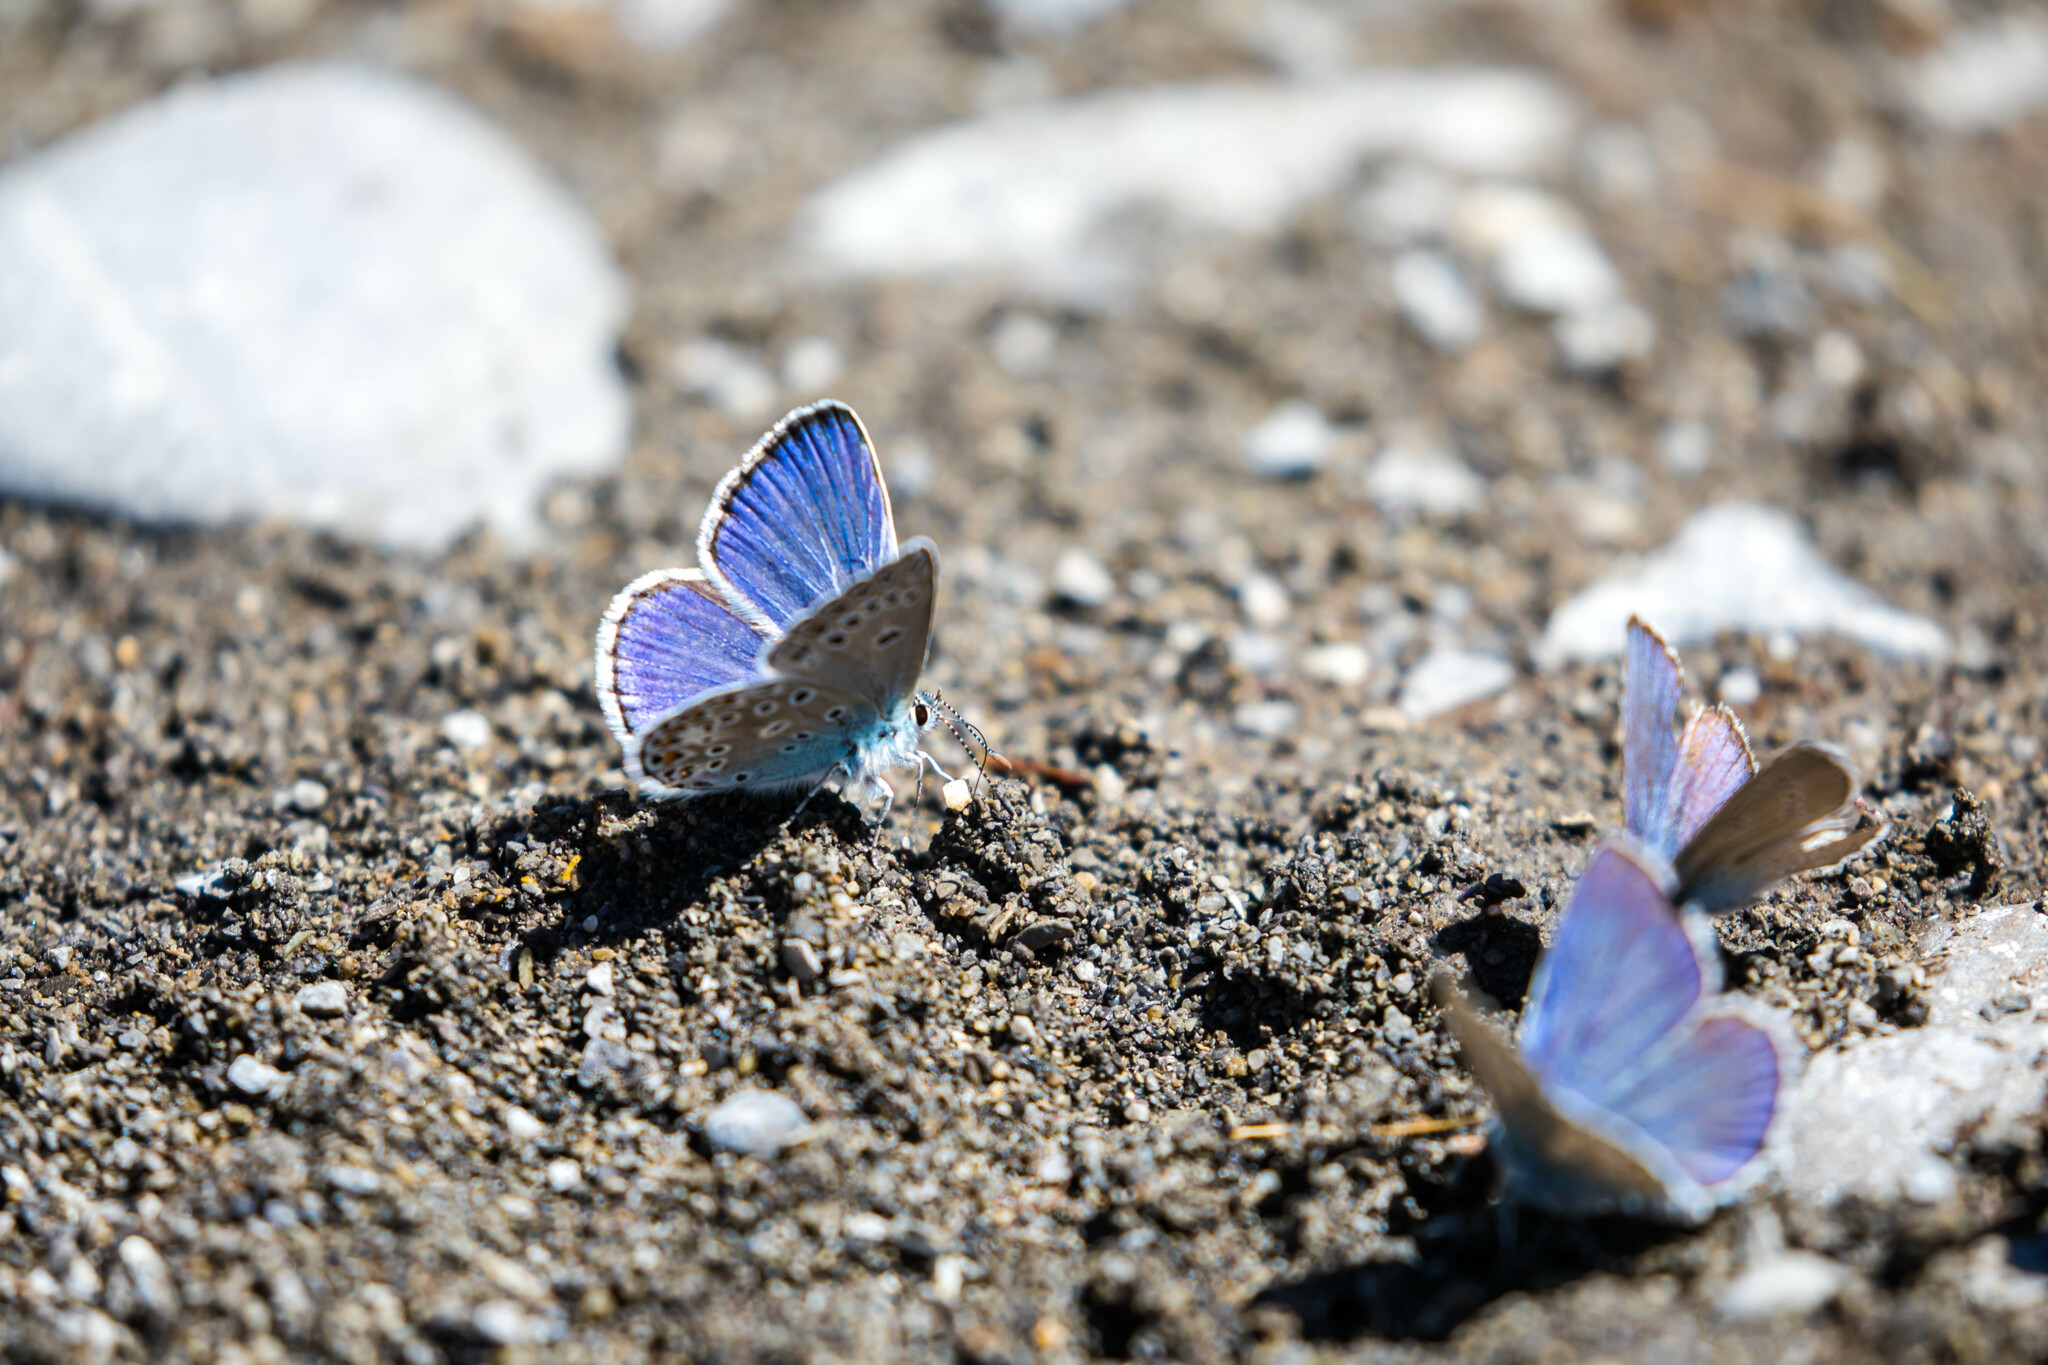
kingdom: Animalia
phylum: Arthropoda
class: Insecta
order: Lepidoptera
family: Lycaenidae
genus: Plebicula
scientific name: Plebicula escheri
